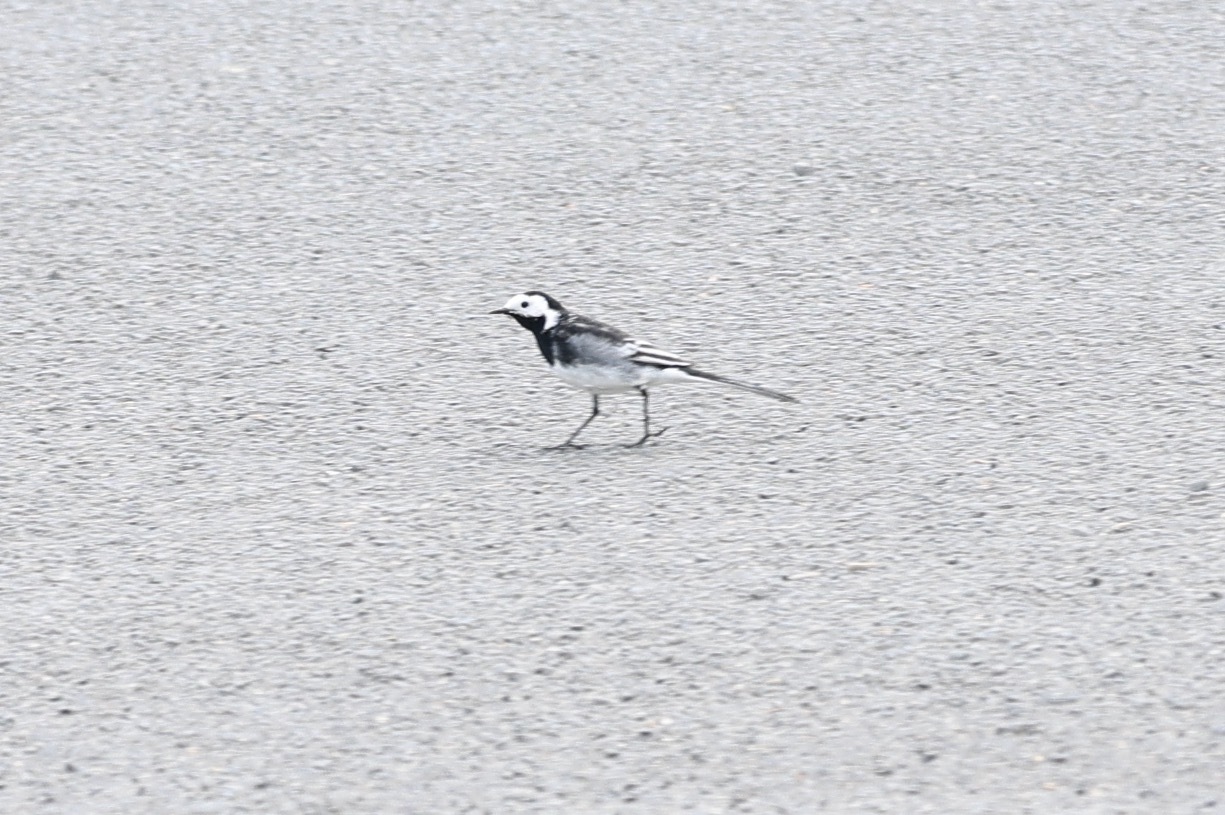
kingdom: Animalia
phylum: Chordata
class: Aves
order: Passeriformes
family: Motacillidae
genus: Motacilla
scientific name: Motacilla alba
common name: White wagtail
